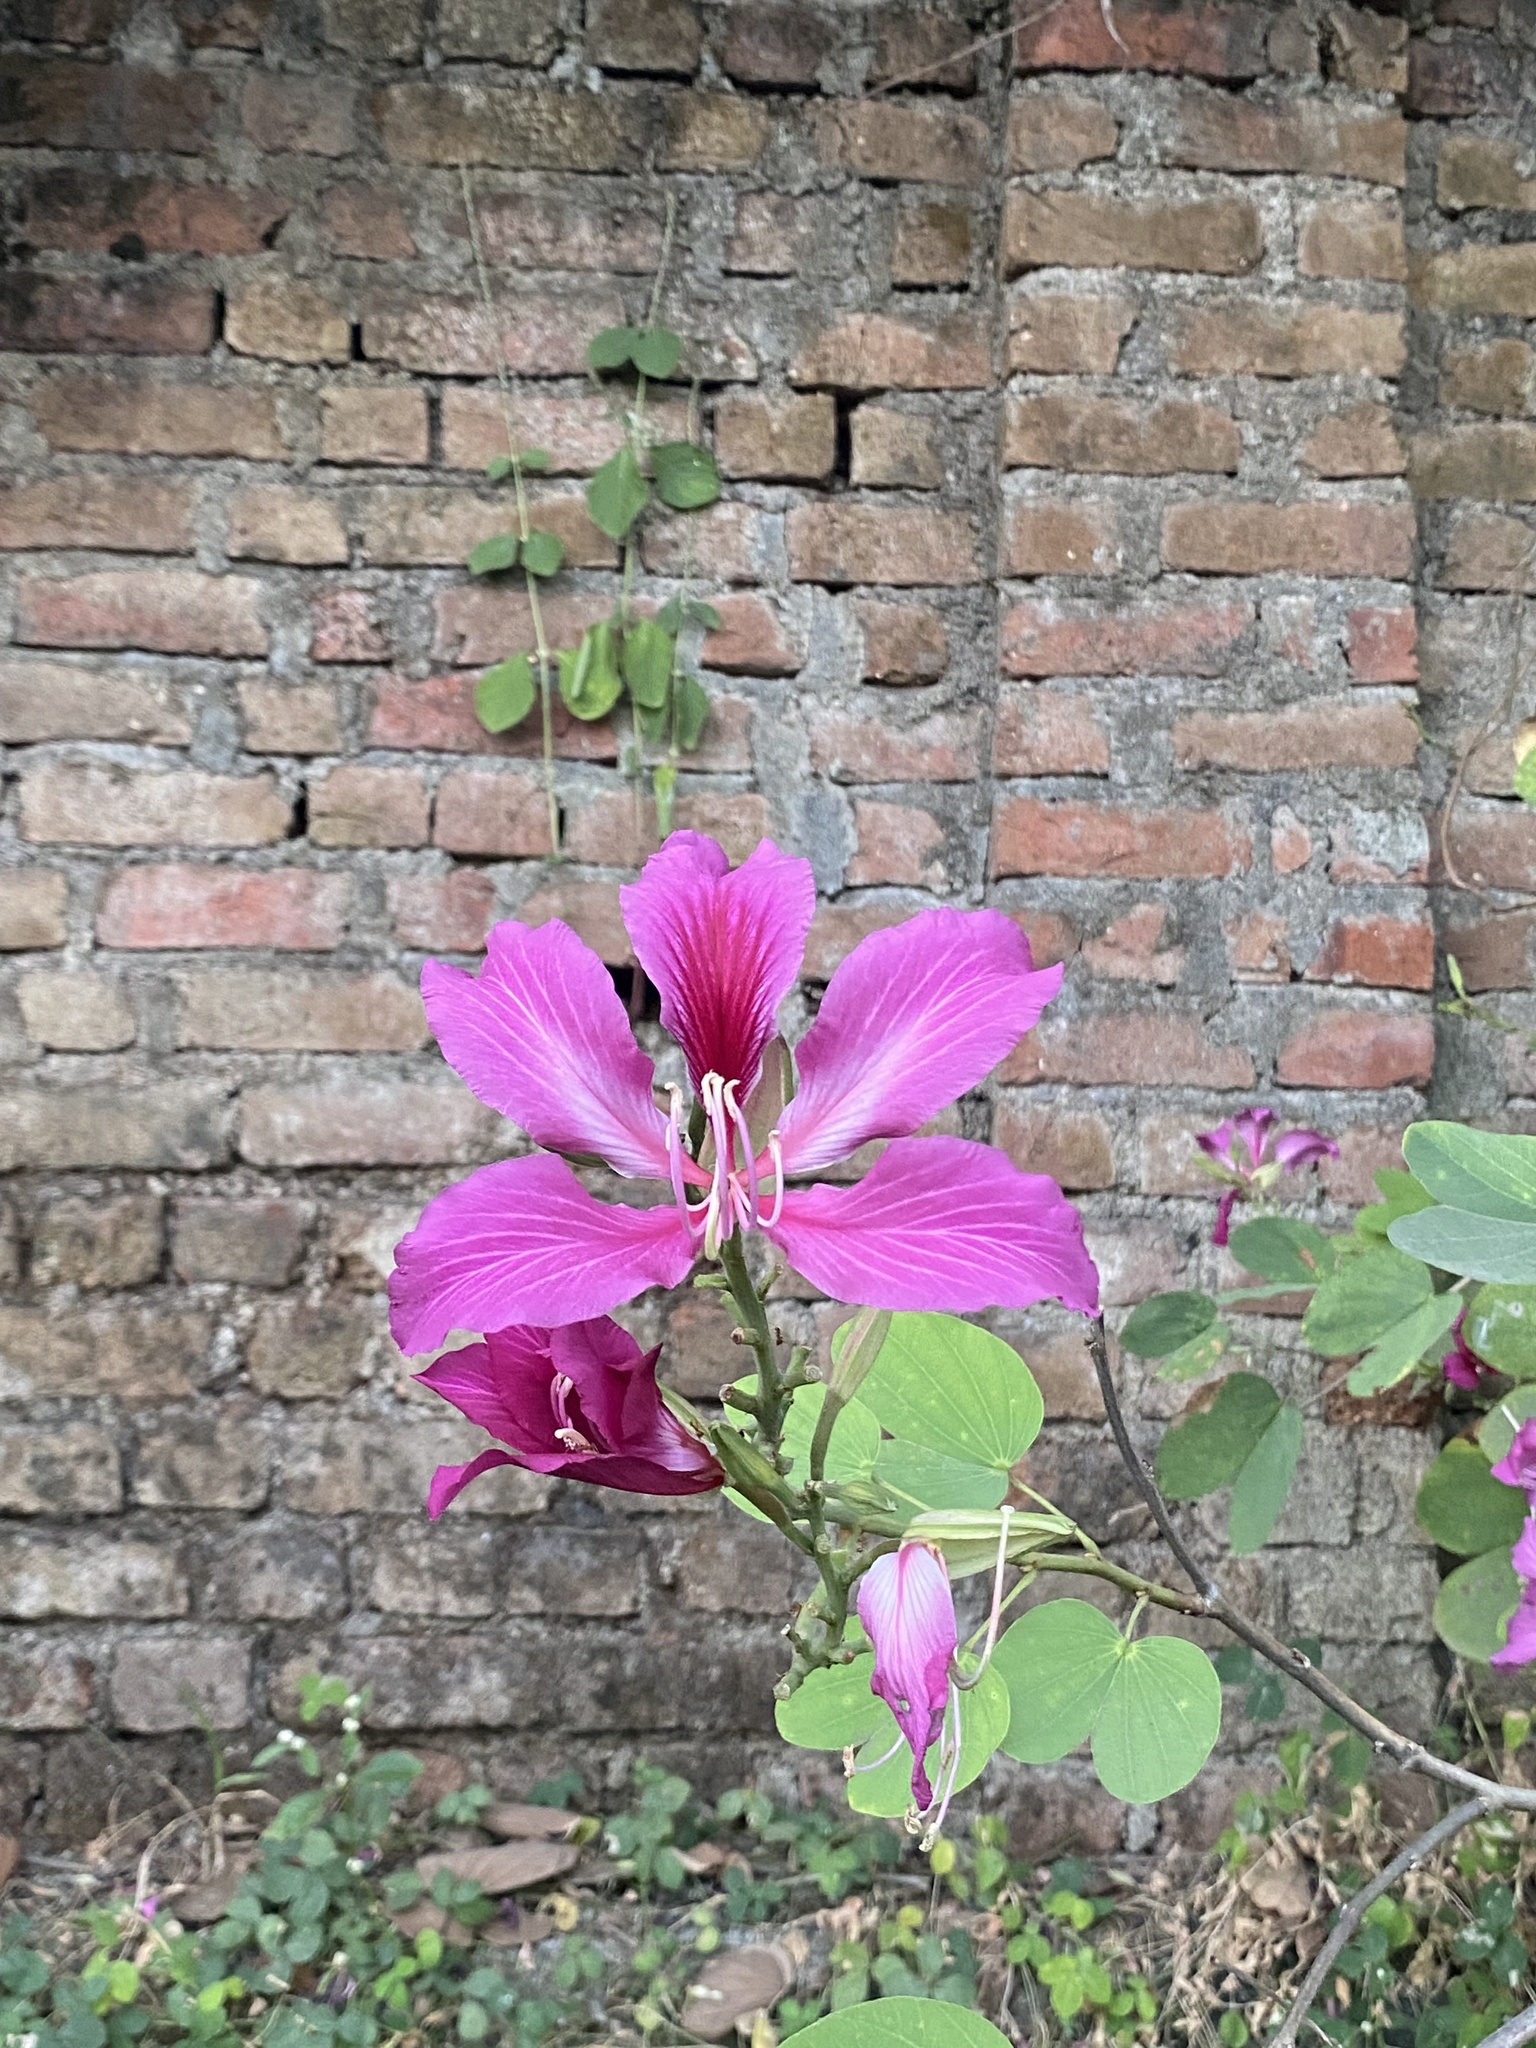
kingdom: Plantae
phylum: Tracheophyta
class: Magnoliopsida
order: Fabales
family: Fabaceae
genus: Bauhinia
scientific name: Bauhinia blakeana
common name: Bauhinia
